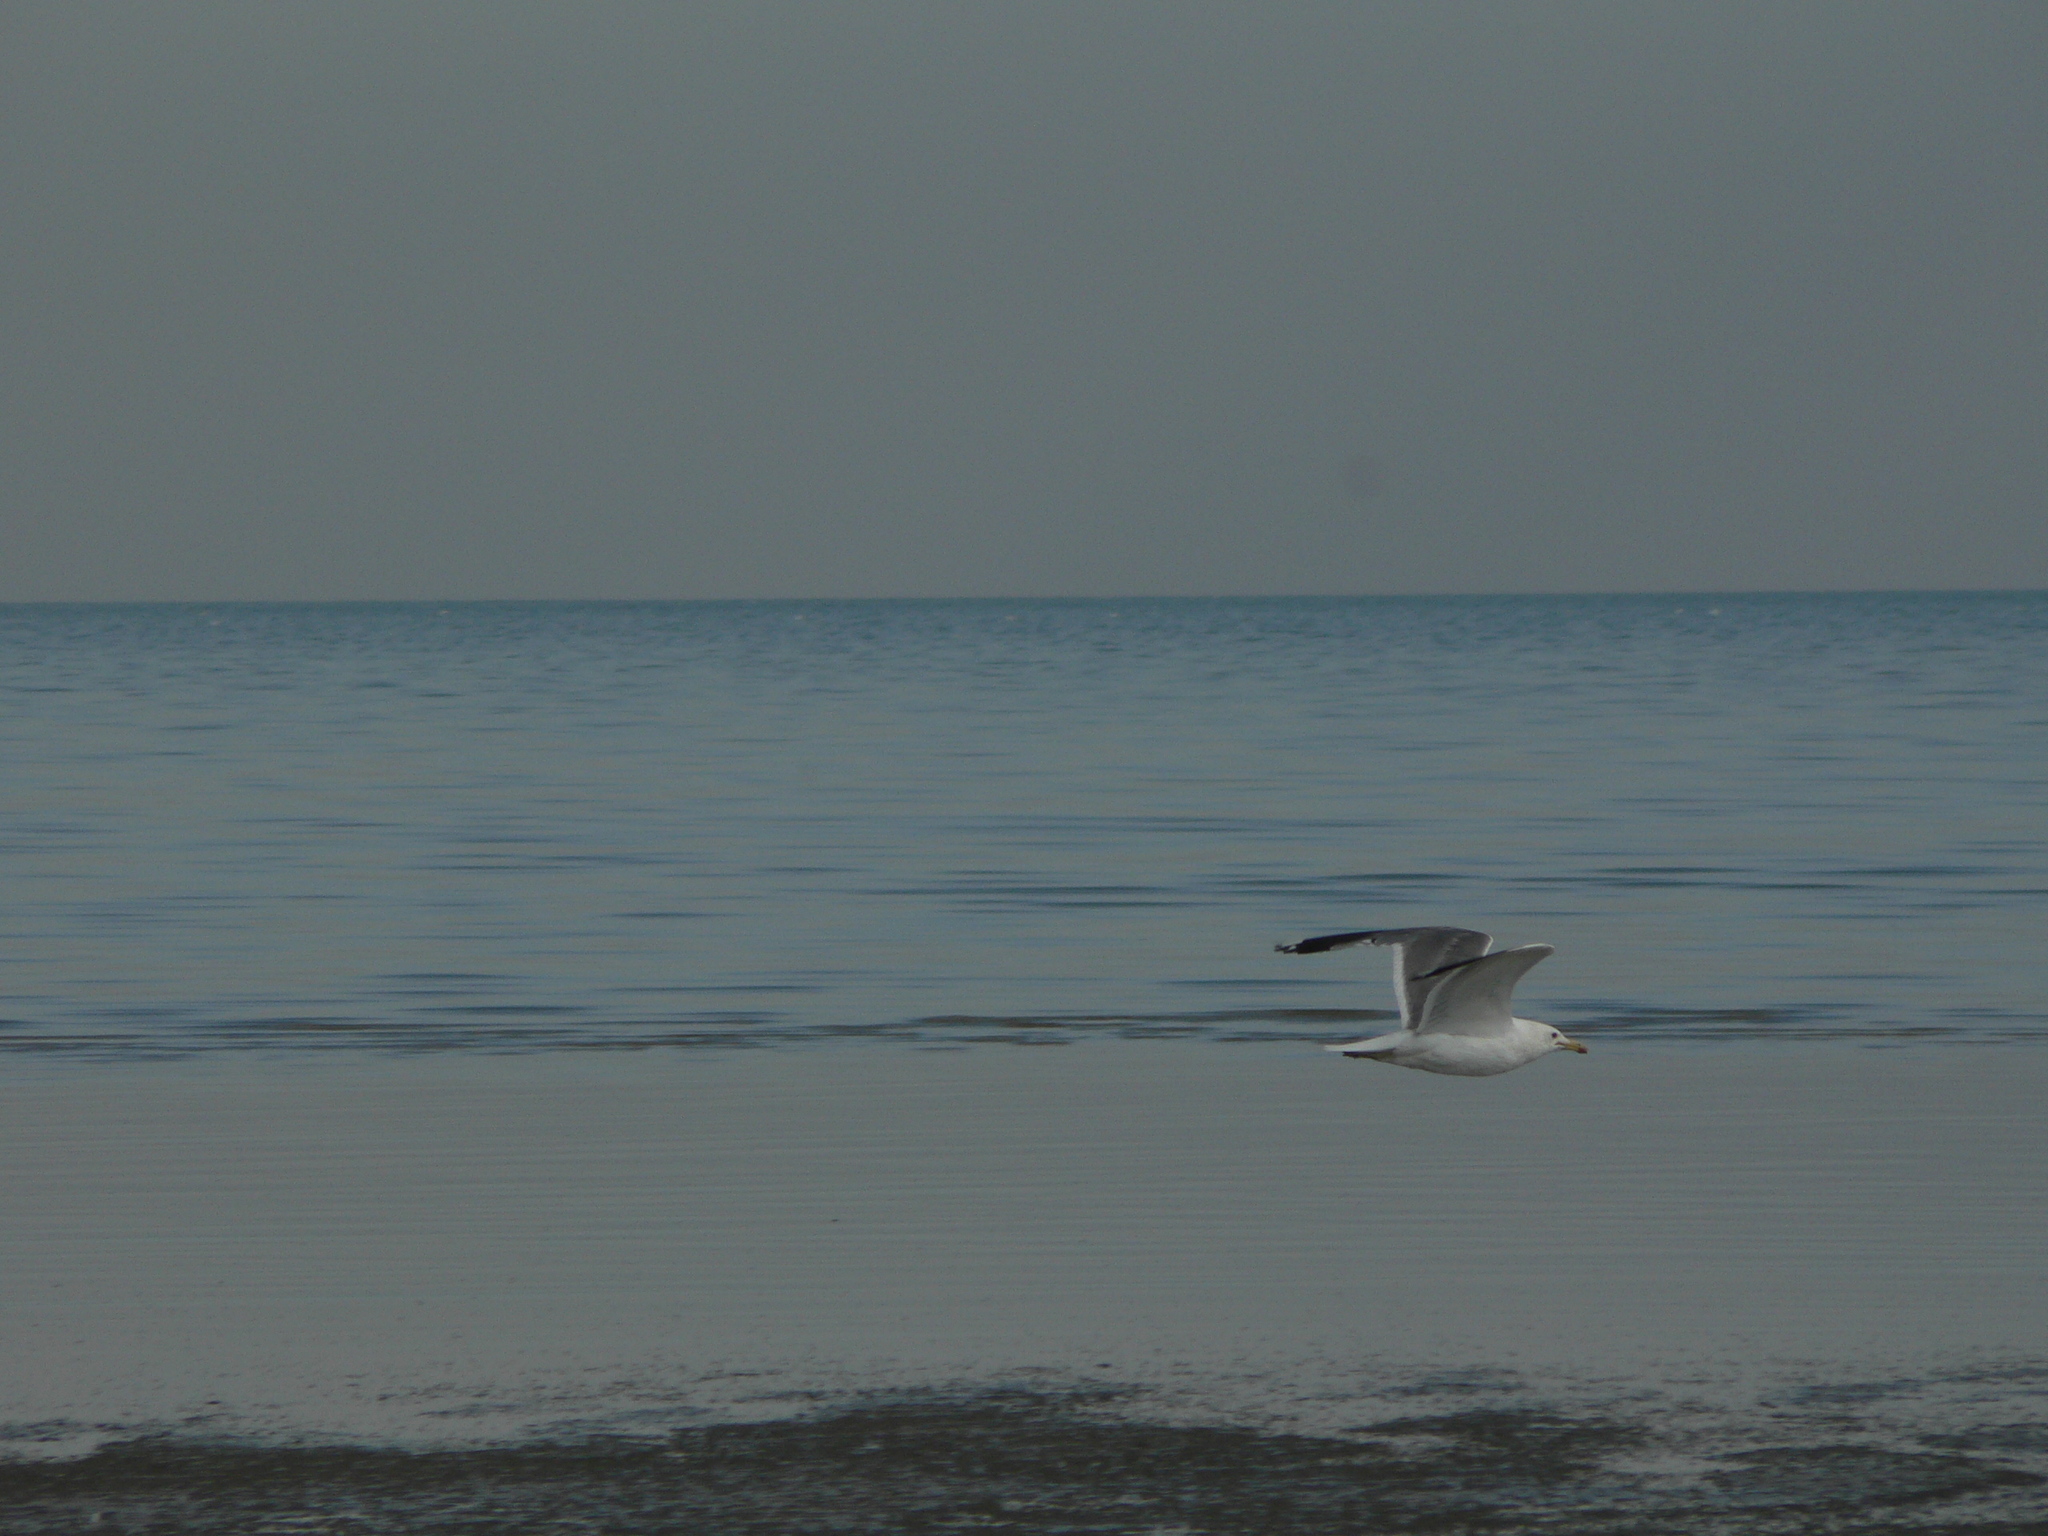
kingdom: Animalia
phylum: Chordata
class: Aves
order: Charadriiformes
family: Laridae
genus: Larus
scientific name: Larus californicus
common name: California gull
